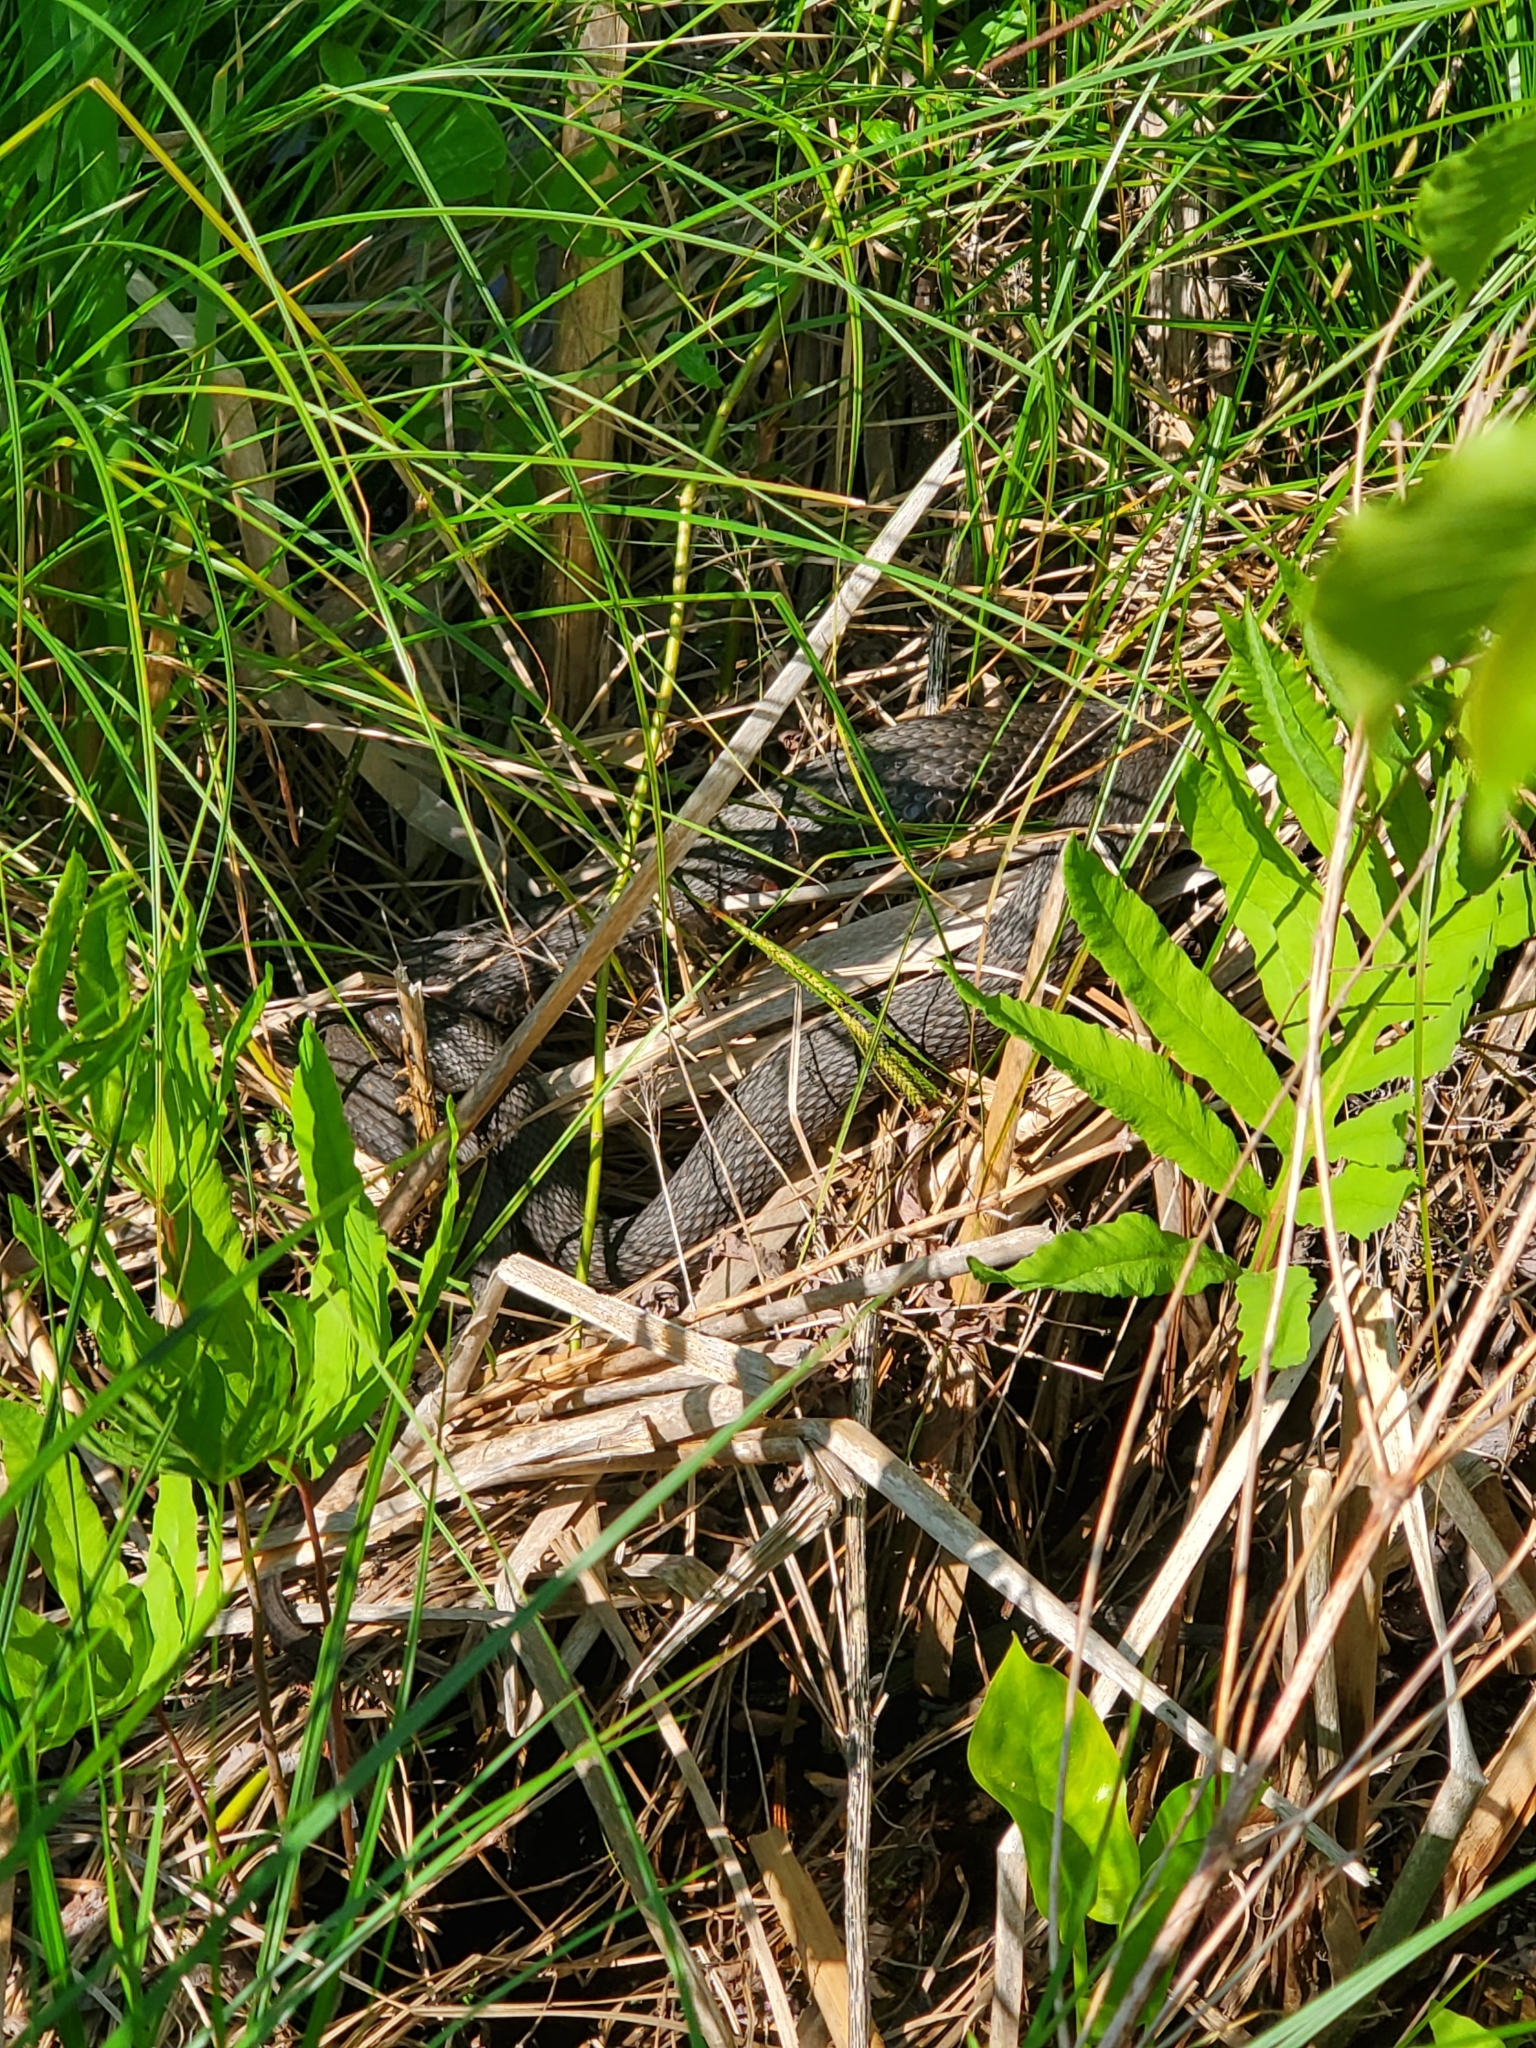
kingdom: Animalia
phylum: Chordata
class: Squamata
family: Colubridae
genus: Nerodia
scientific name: Nerodia sipedon
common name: Northern water snake
